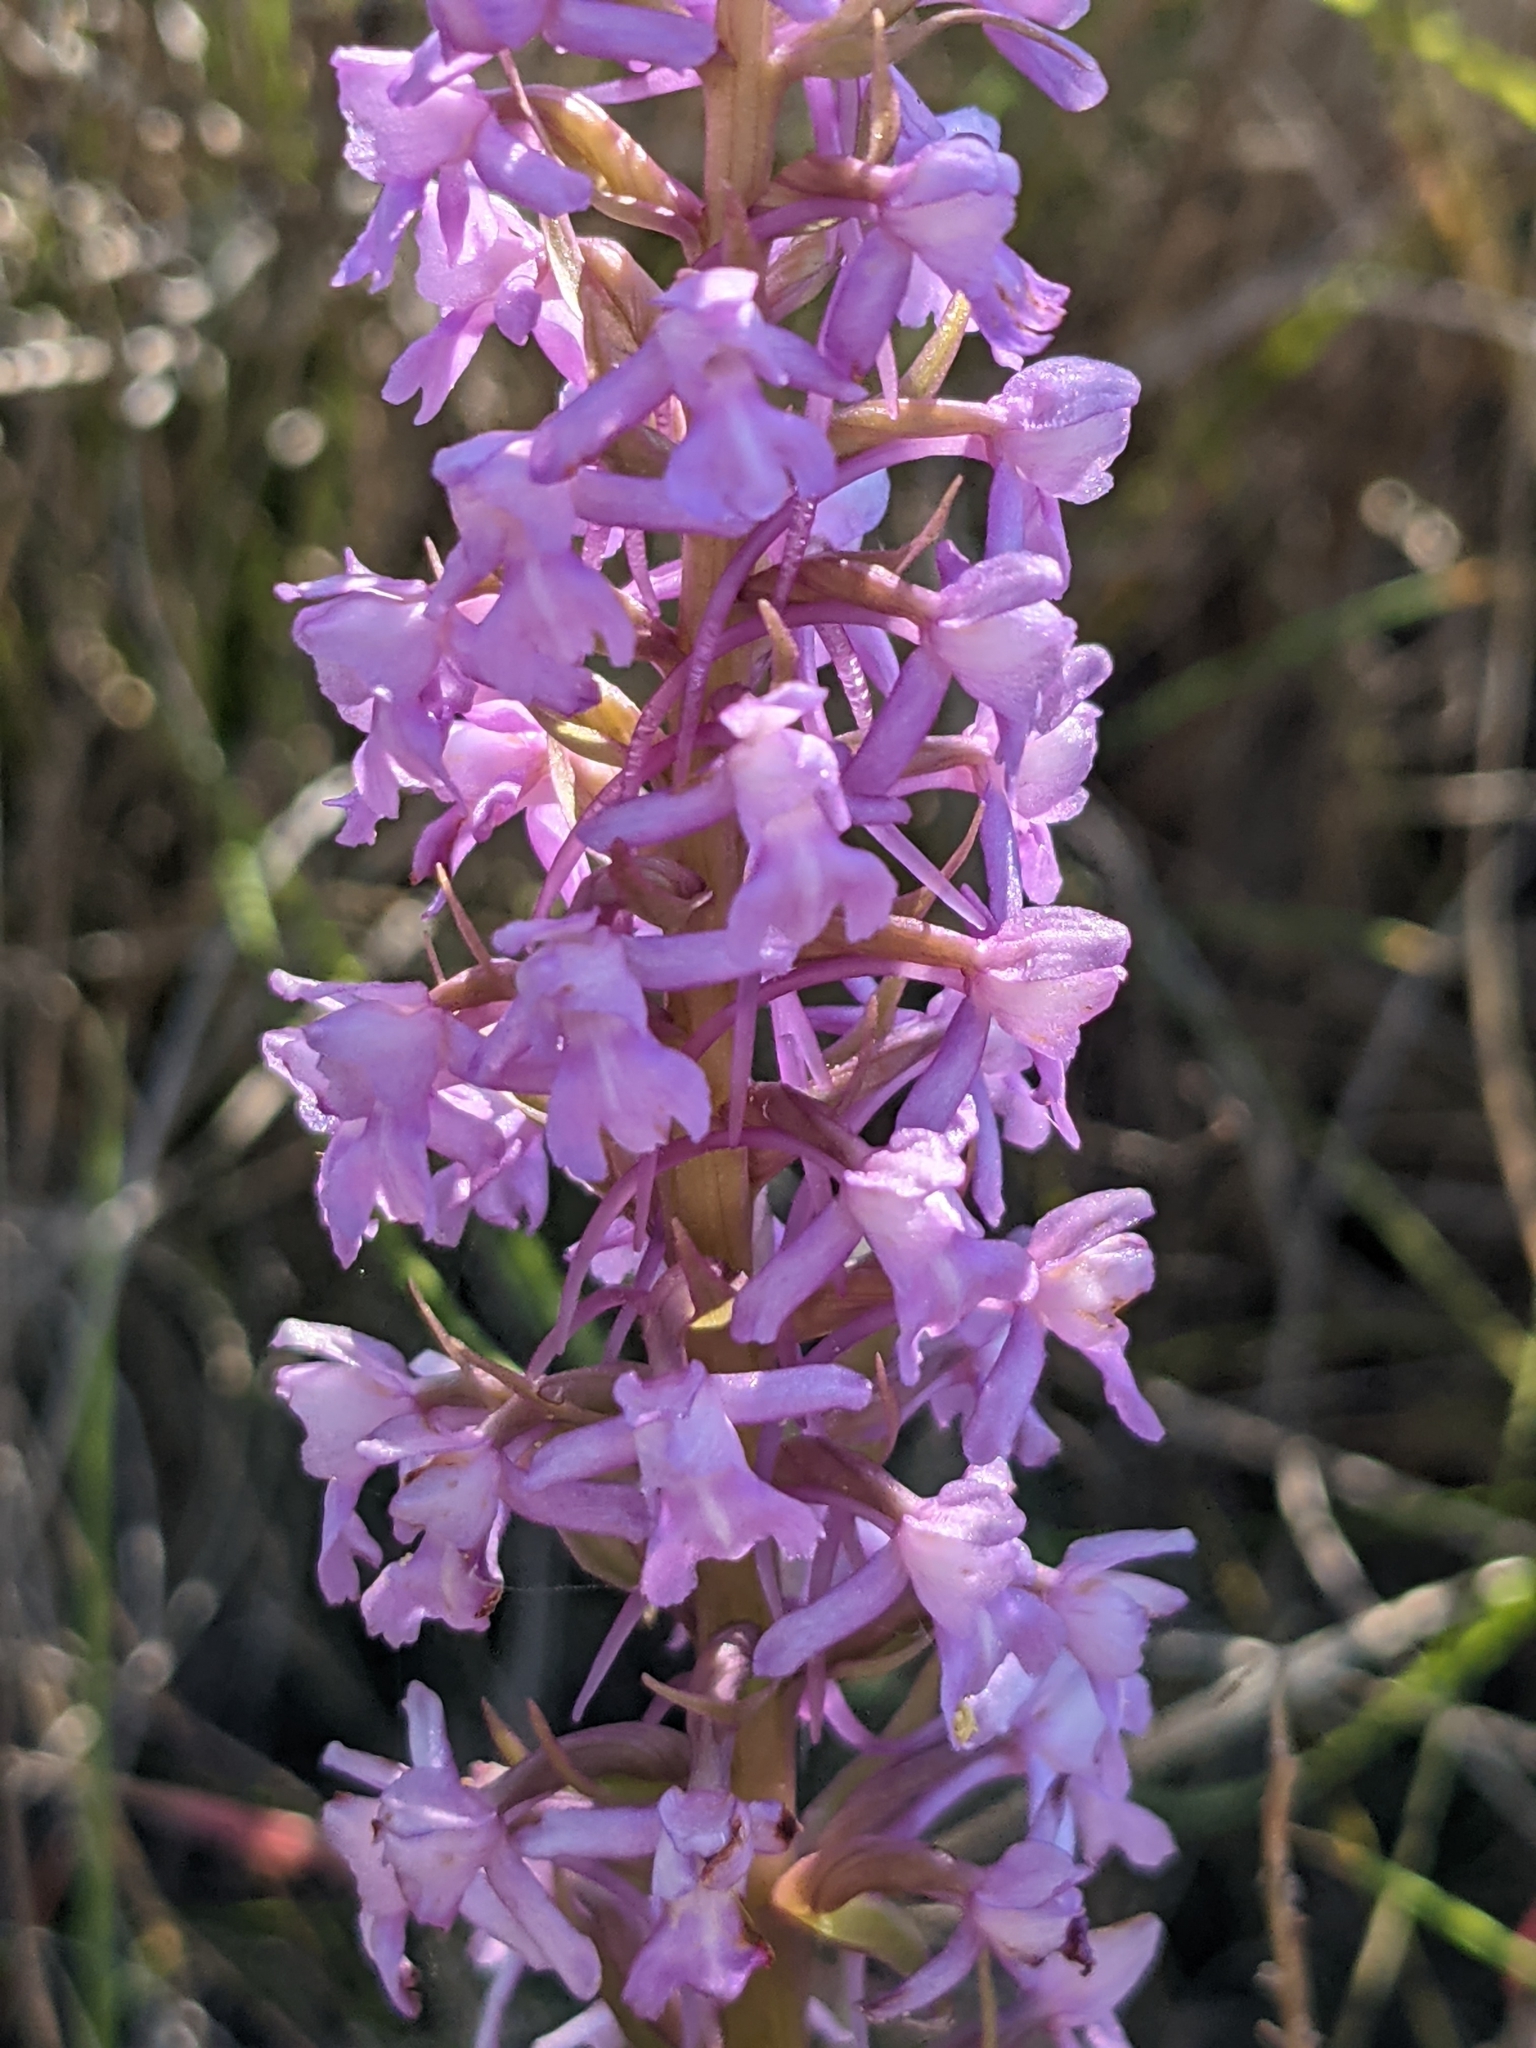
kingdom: Plantae
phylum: Tracheophyta
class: Liliopsida
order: Asparagales
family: Orchidaceae
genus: Gymnadenia
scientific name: Gymnadenia conopsea
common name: Fragrant orchid
